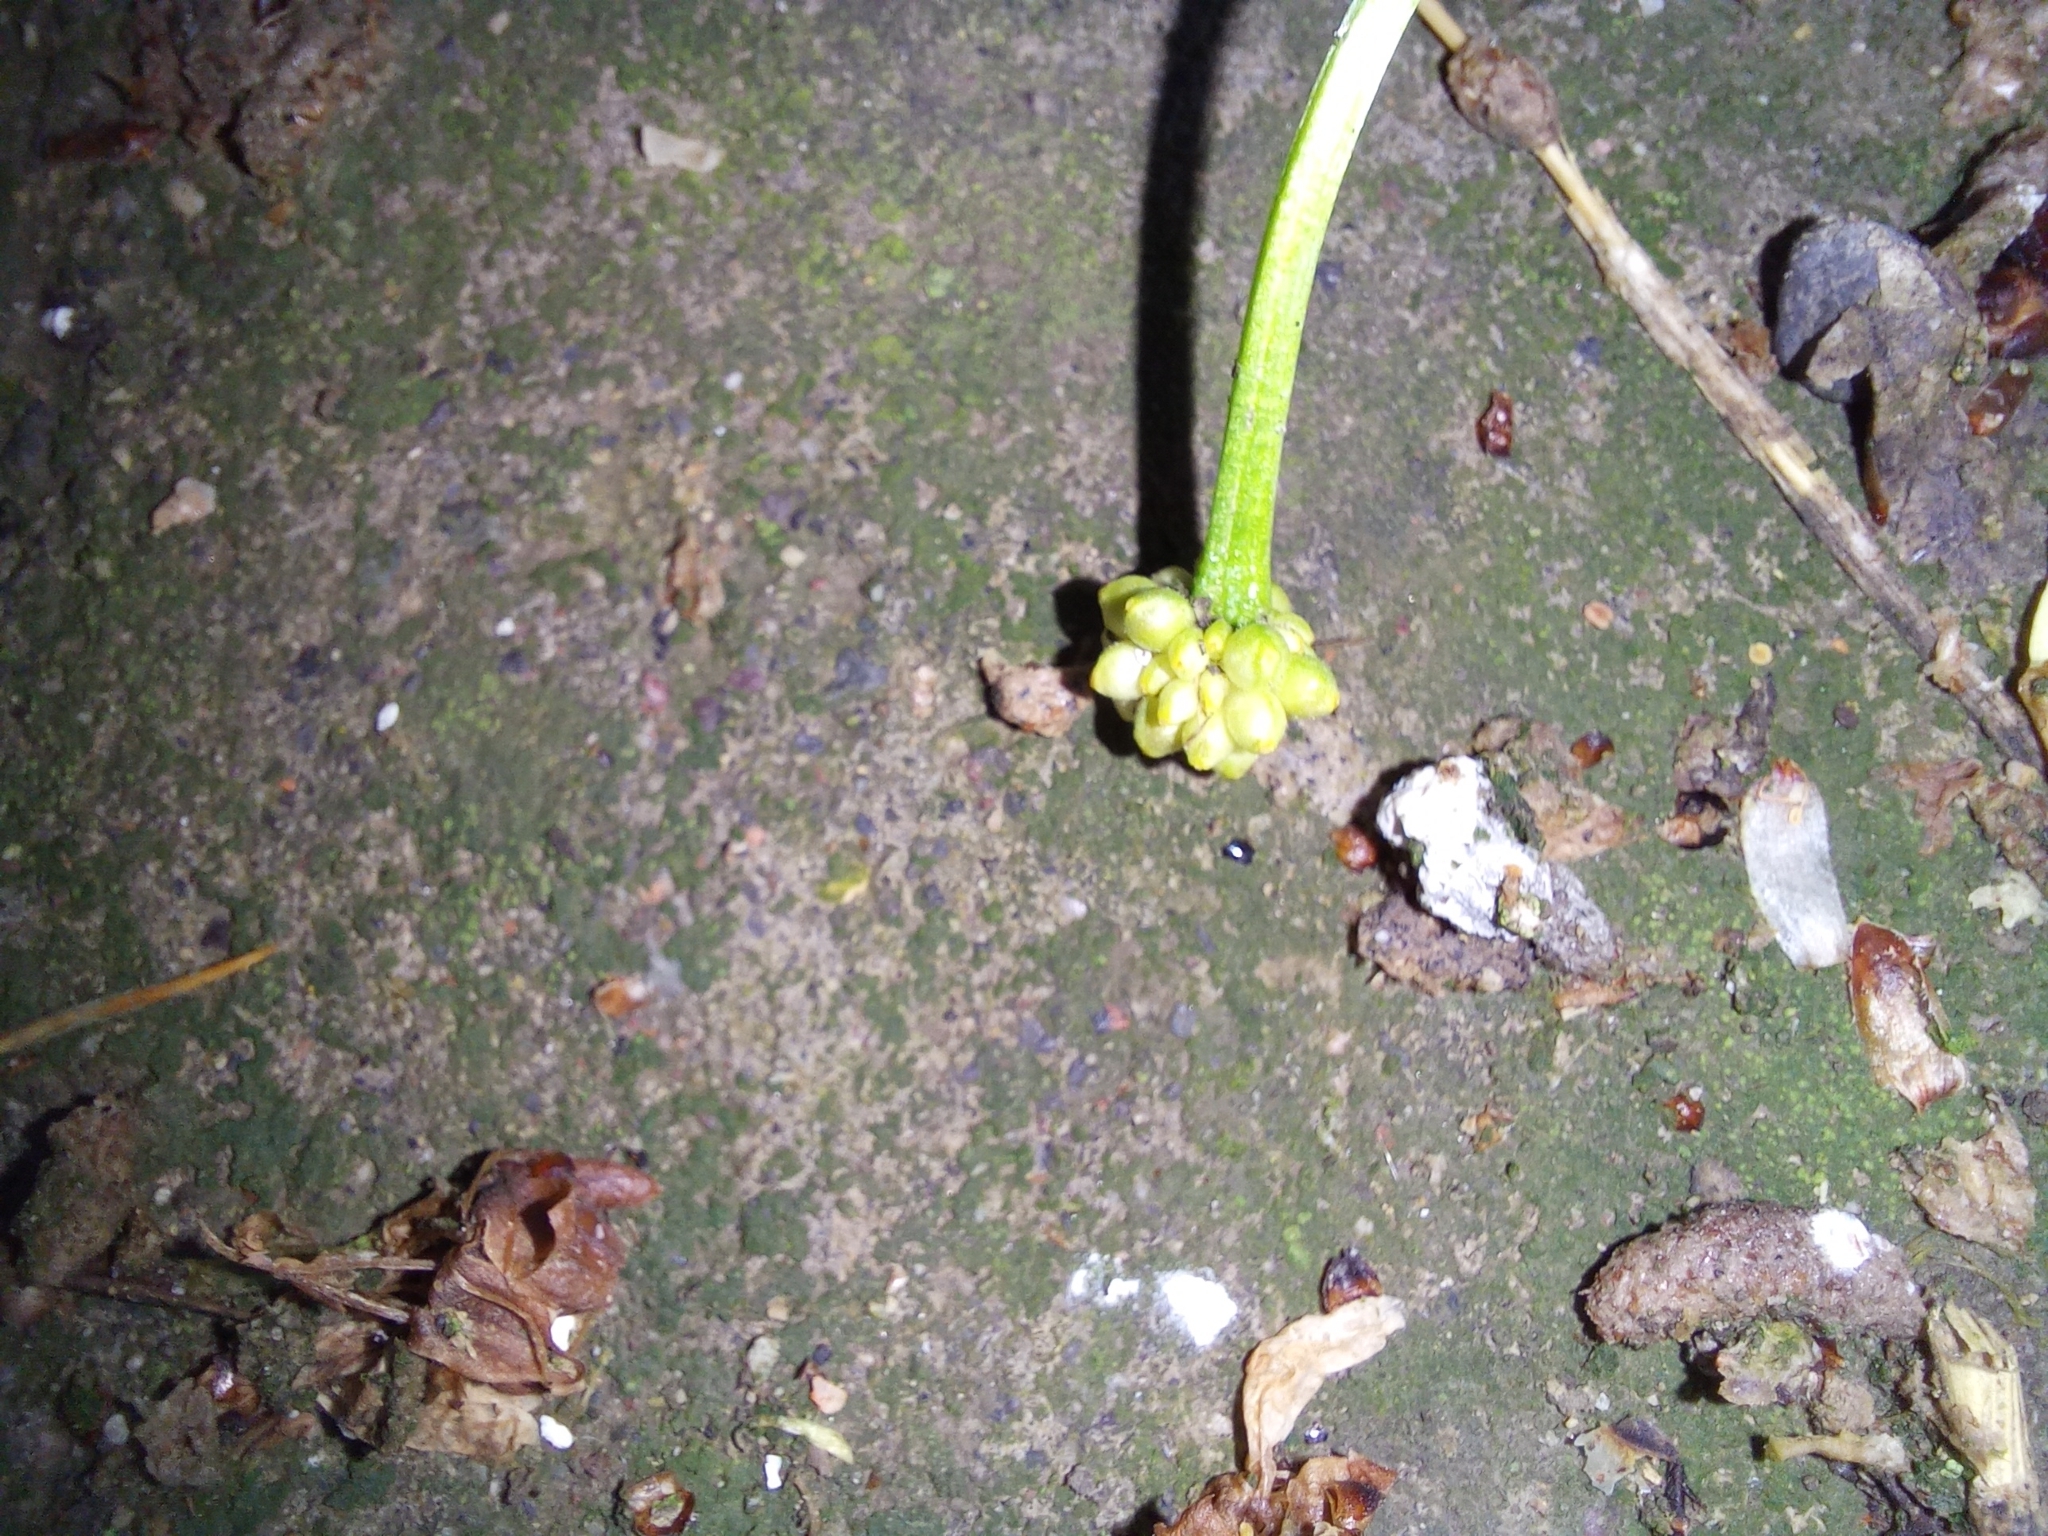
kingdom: Plantae
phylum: Tracheophyta
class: Magnoliopsida
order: Ranunculales
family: Ranunculaceae
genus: Ficaria
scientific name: Ficaria verna
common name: Lesser celandine
